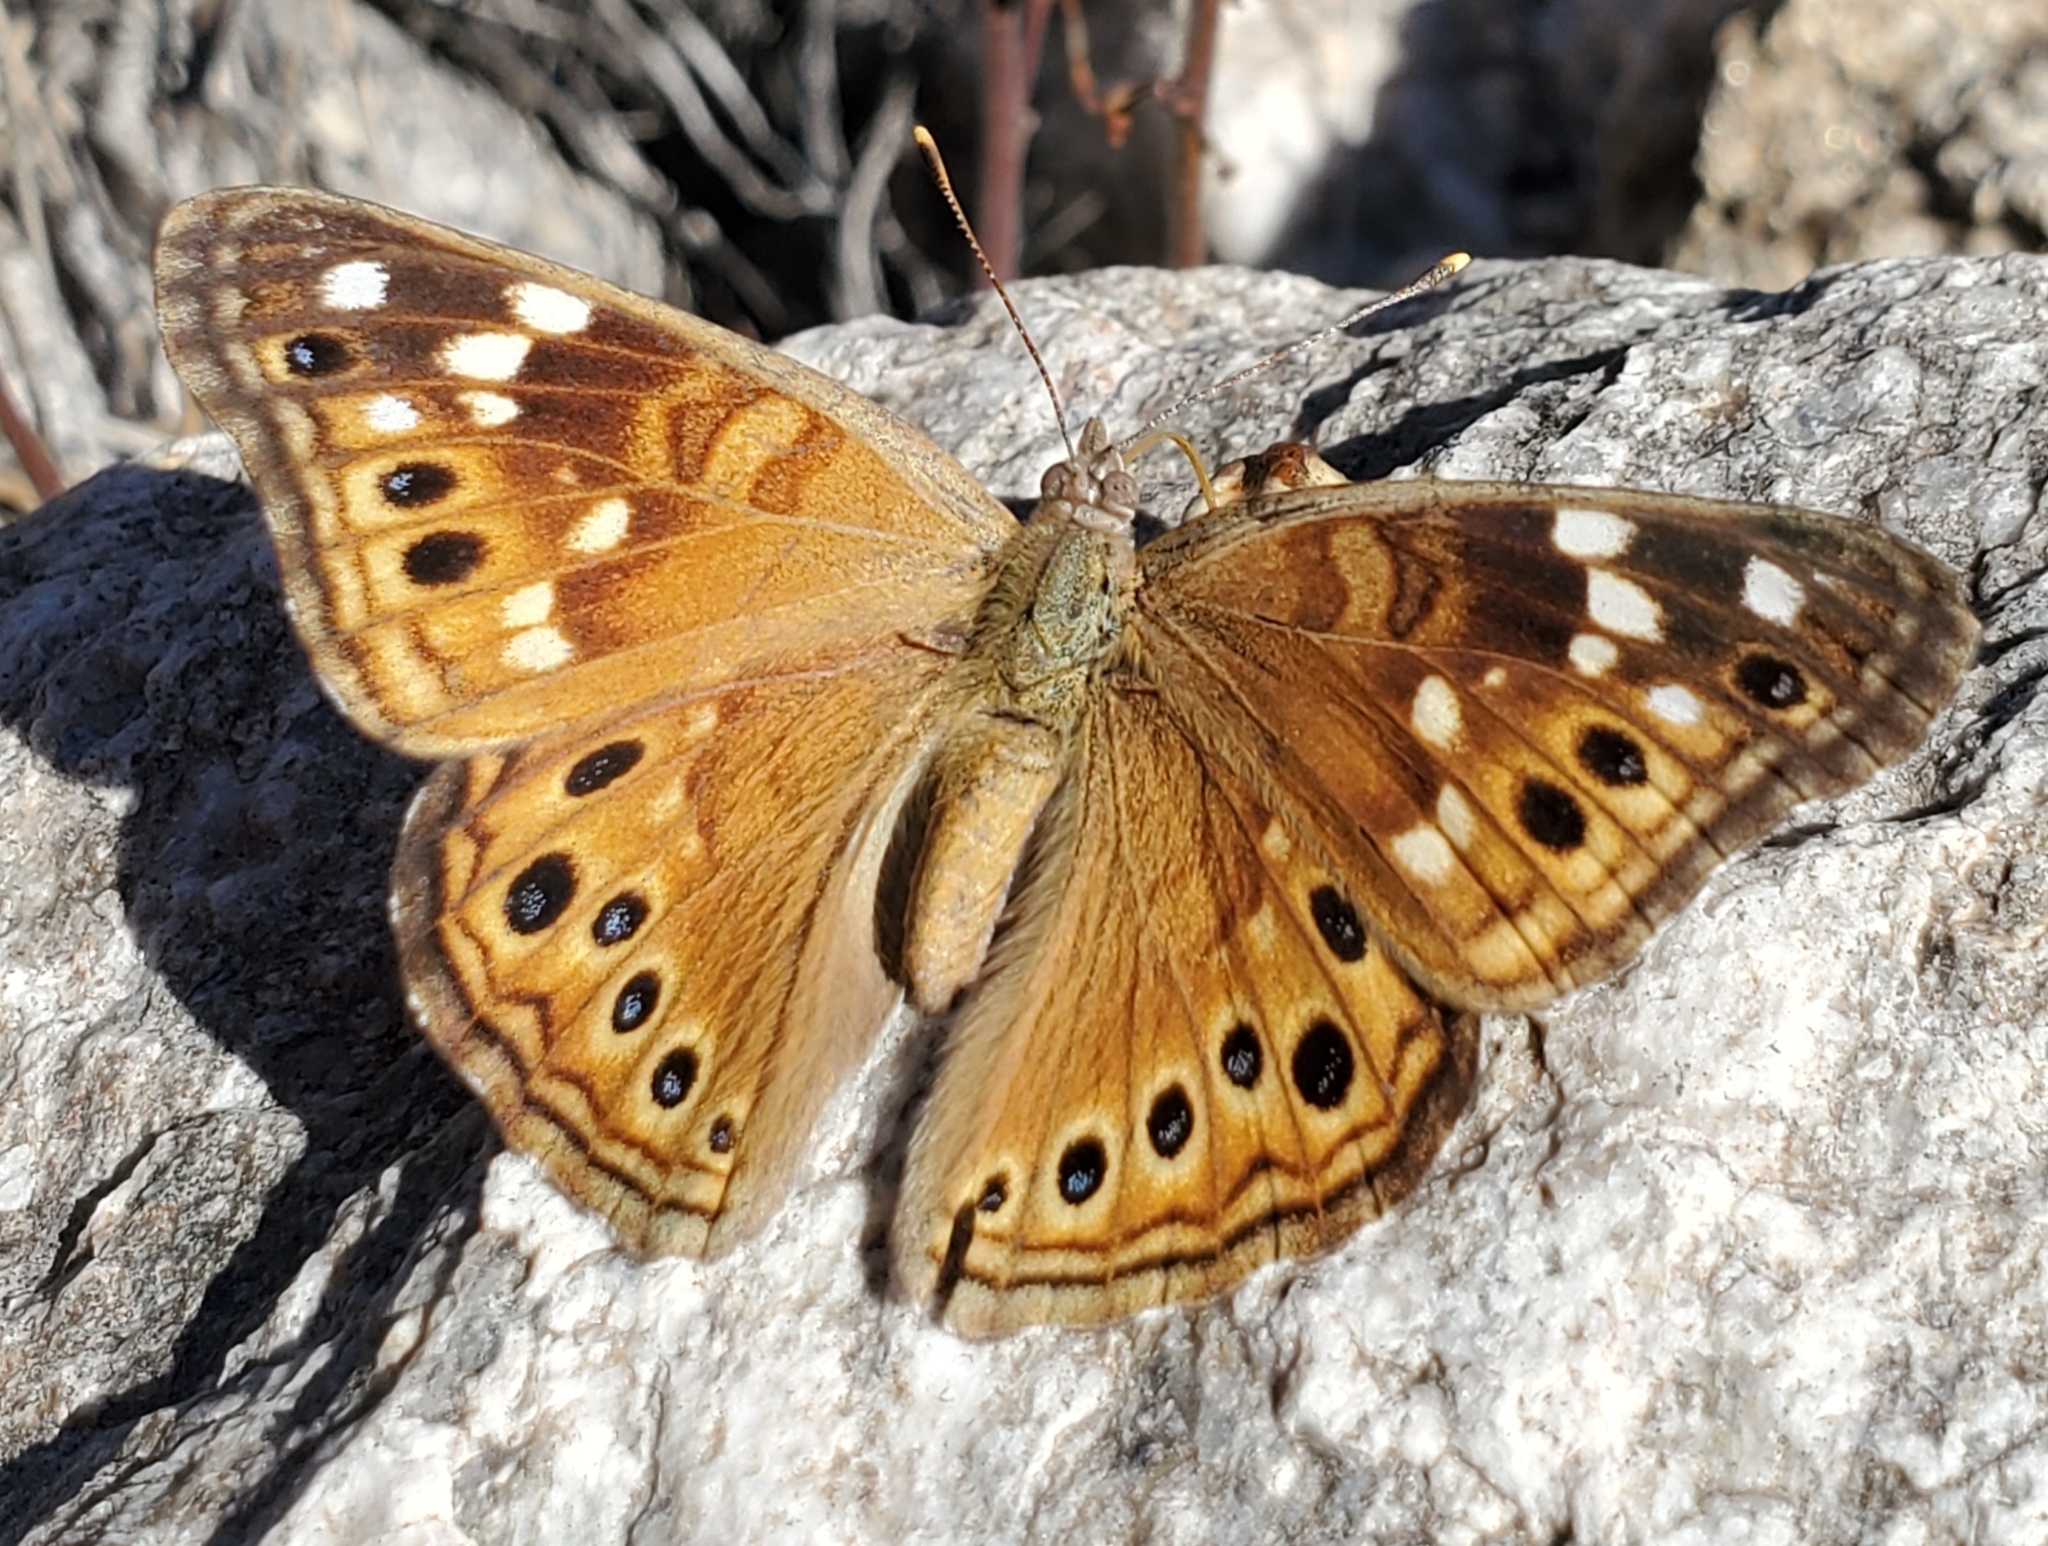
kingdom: Animalia
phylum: Arthropoda
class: Insecta
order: Lepidoptera
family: Nymphalidae
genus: Asterocampa
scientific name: Asterocampa leilia
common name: Empress leilia
